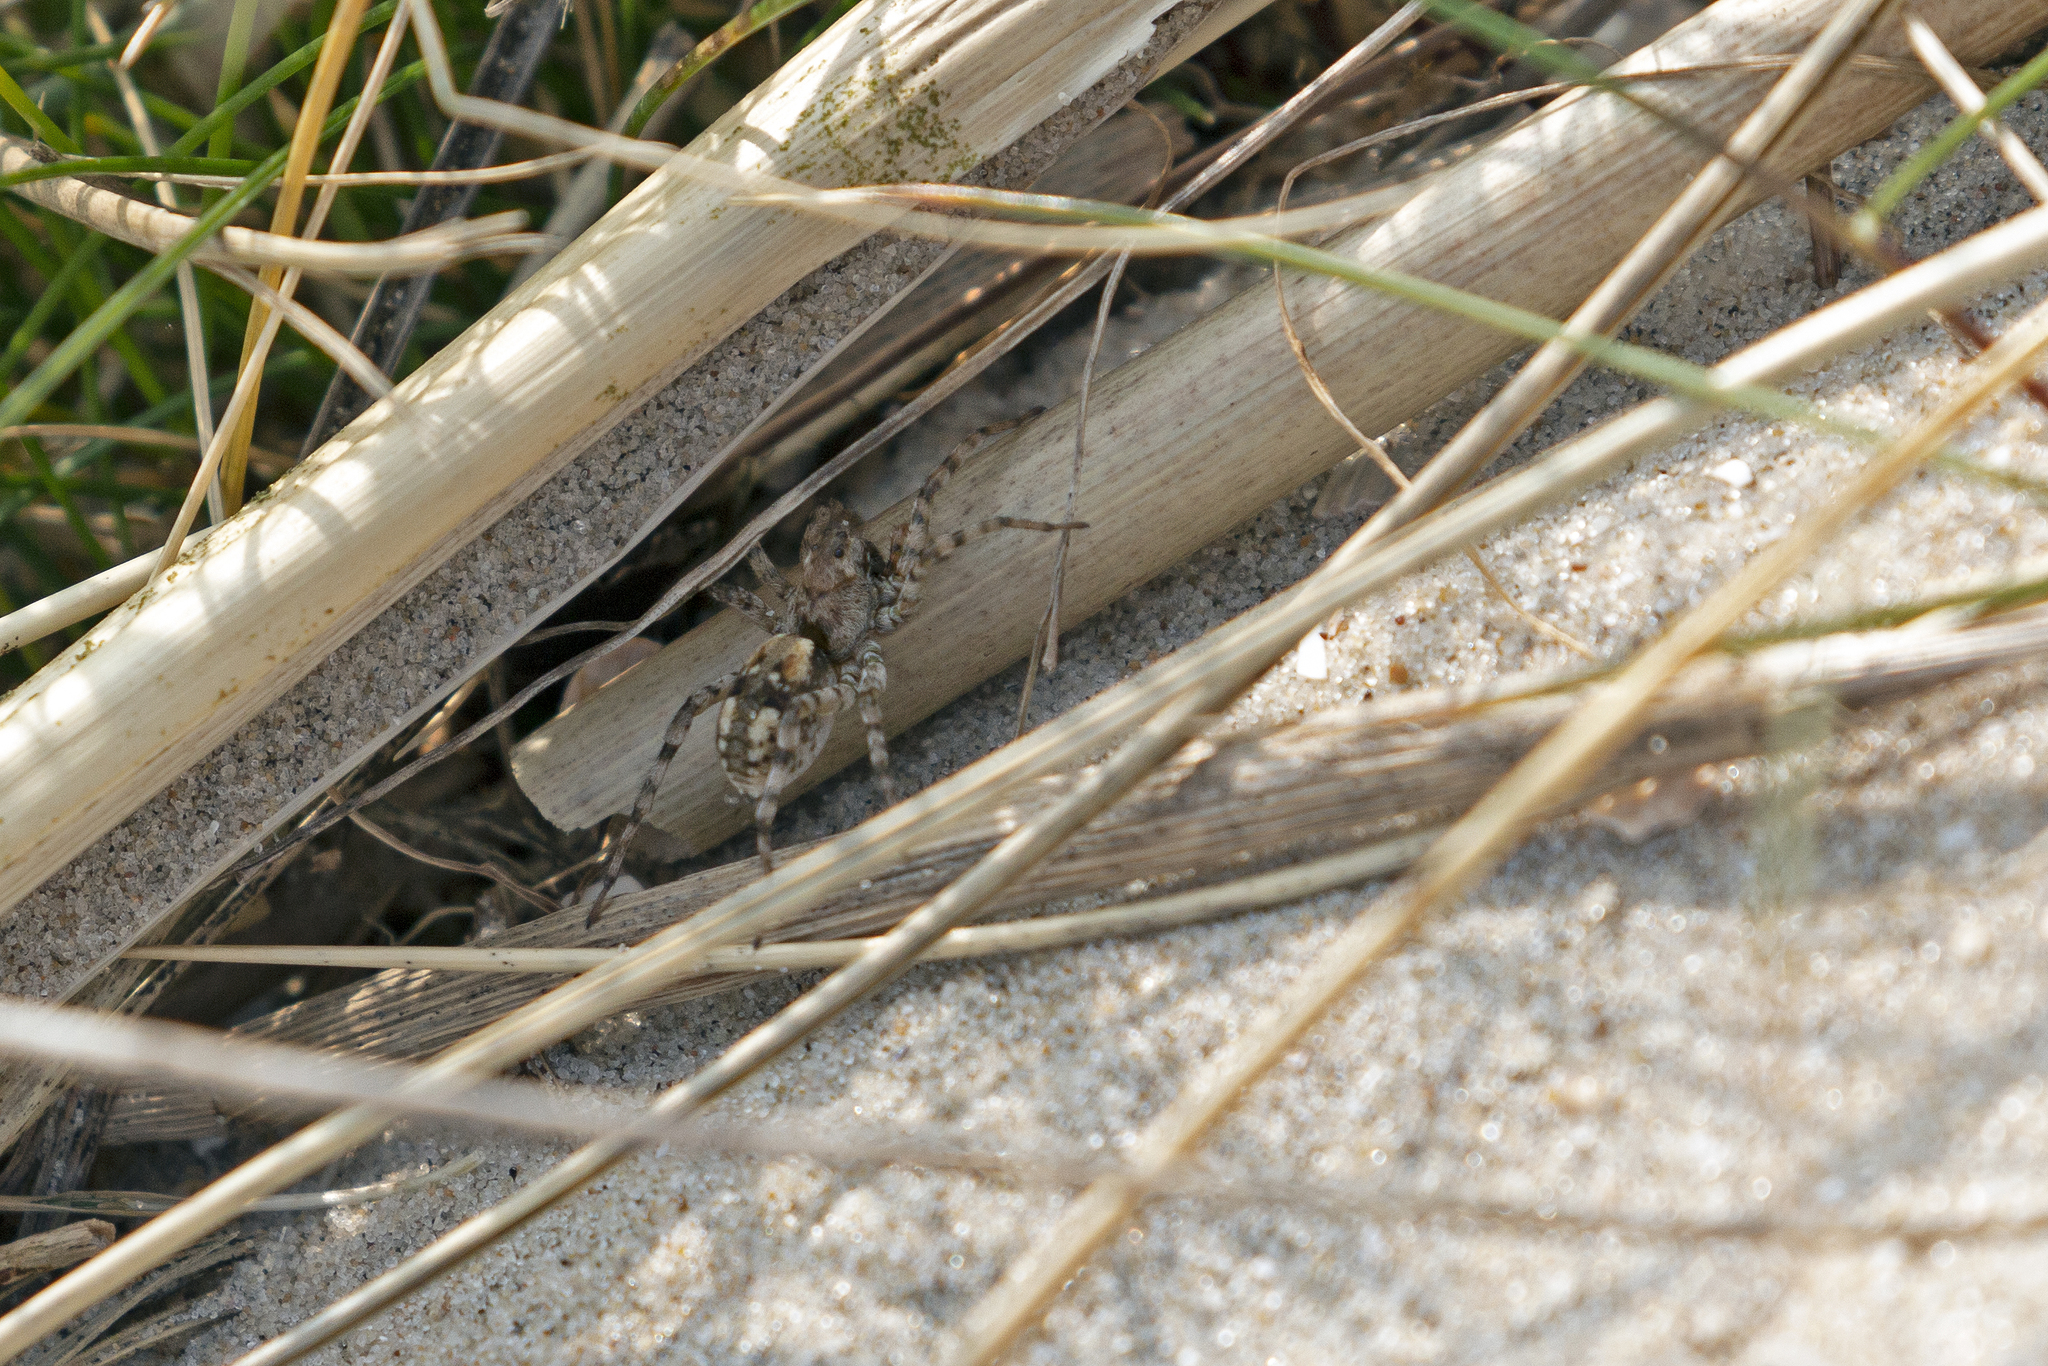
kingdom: Animalia
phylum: Arthropoda
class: Arachnida
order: Araneae
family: Lycosidae
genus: Arctosa
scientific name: Arctosa perita
